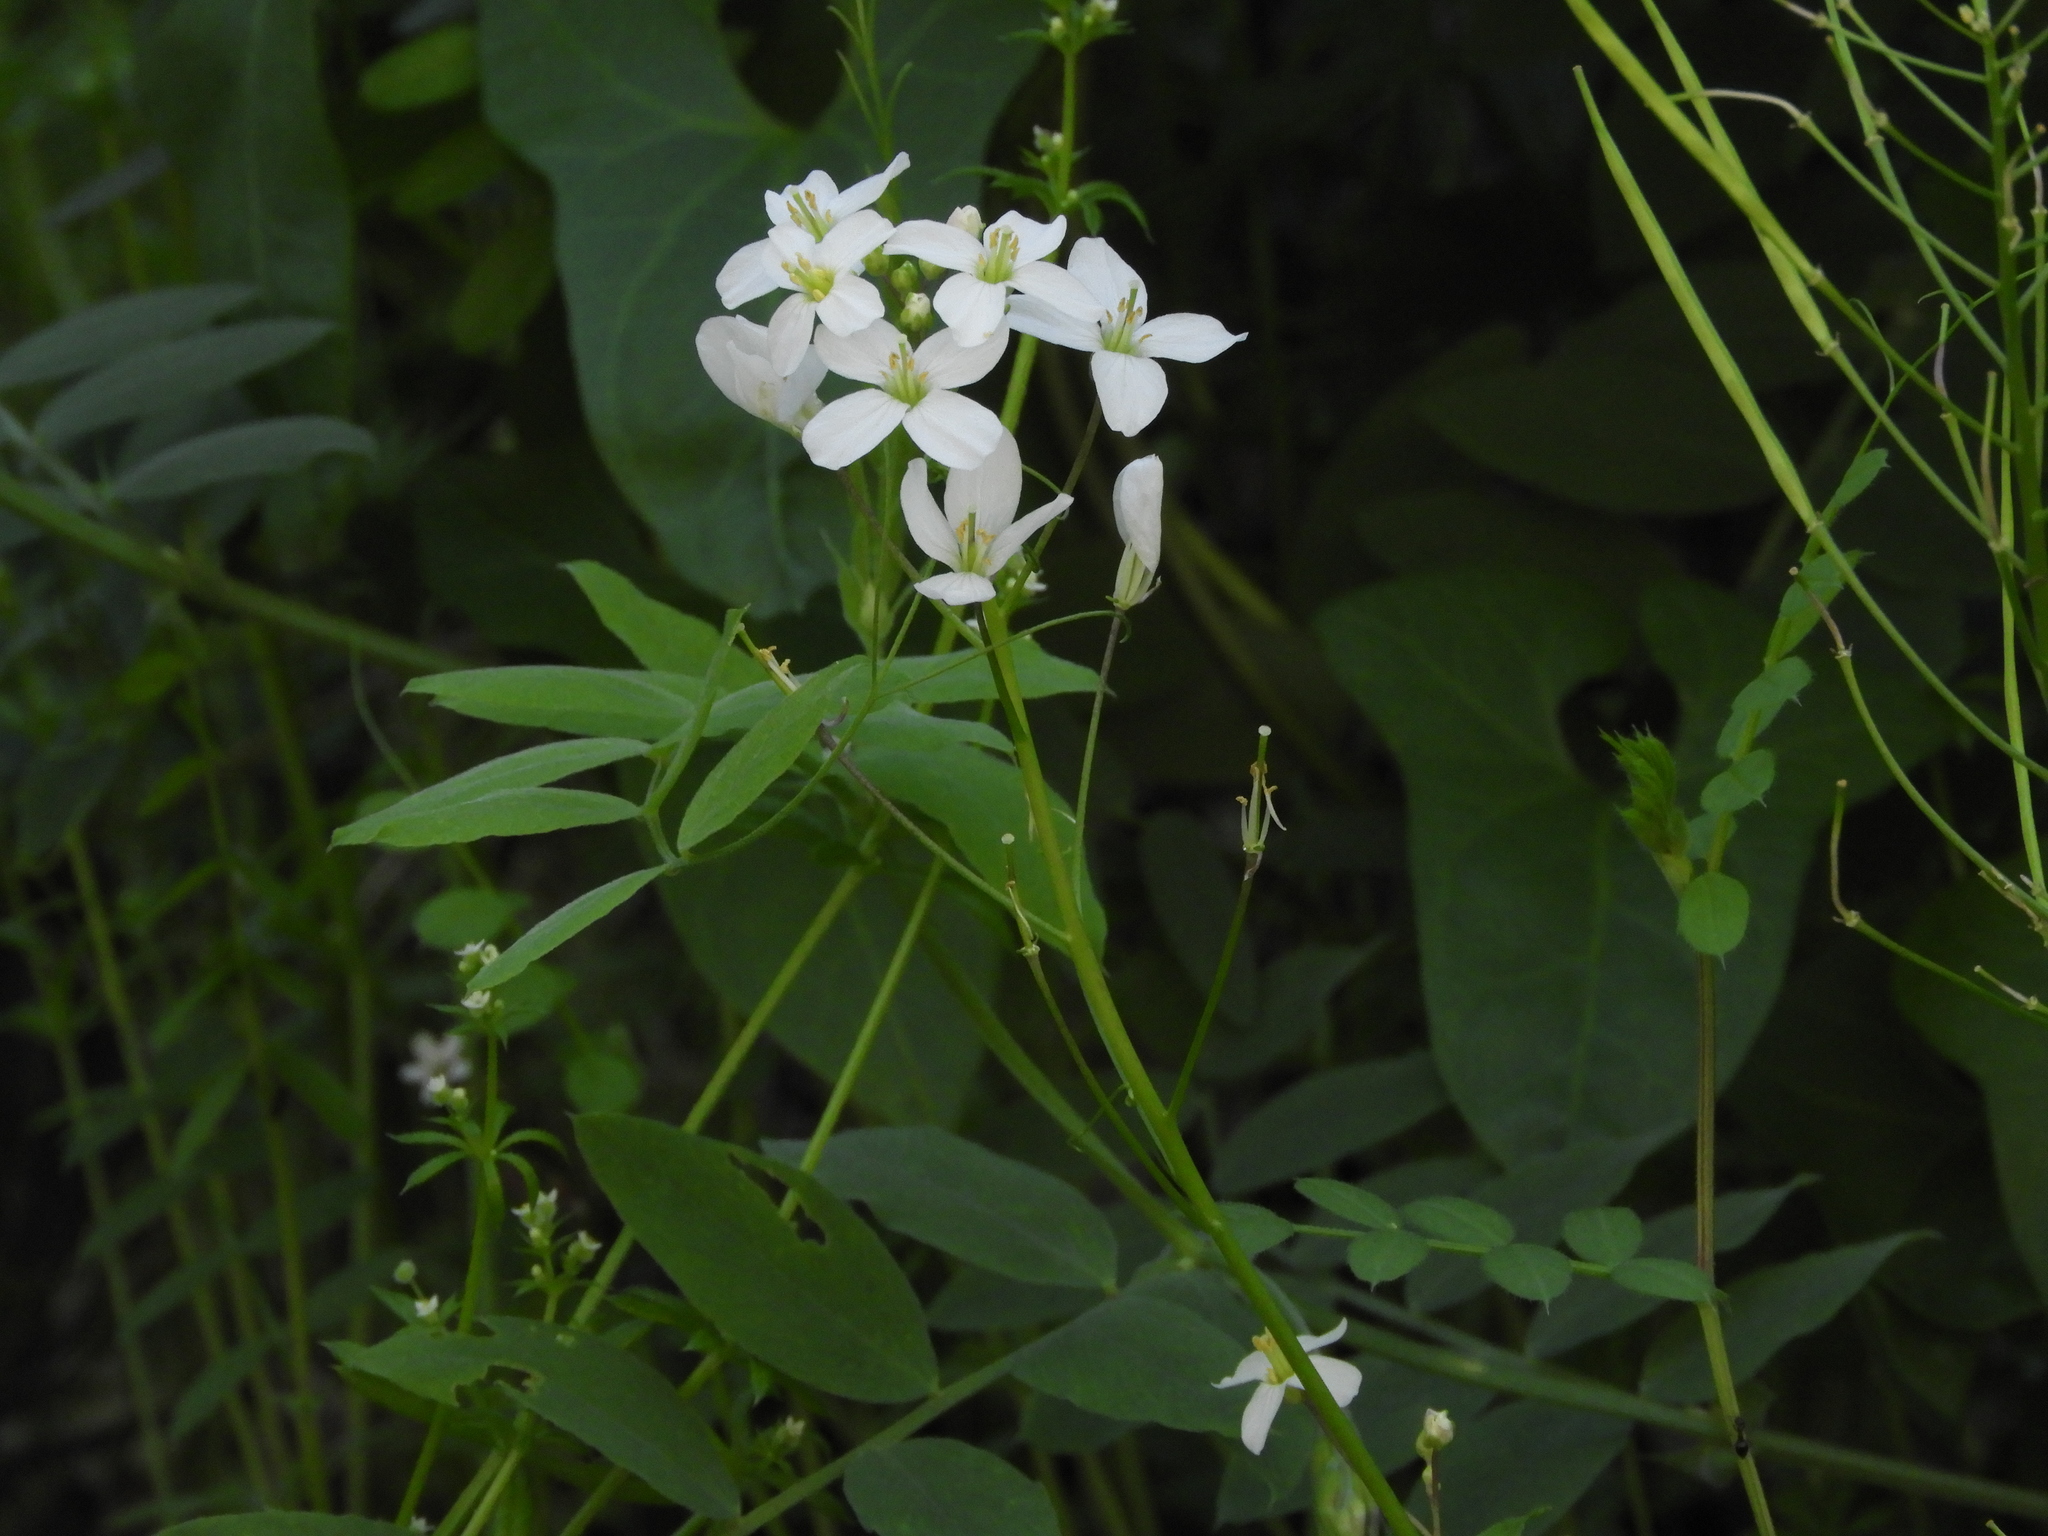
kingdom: Plantae
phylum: Tracheophyta
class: Magnoliopsida
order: Brassicales
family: Brassicaceae
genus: Cardamine
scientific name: Cardamine californica
